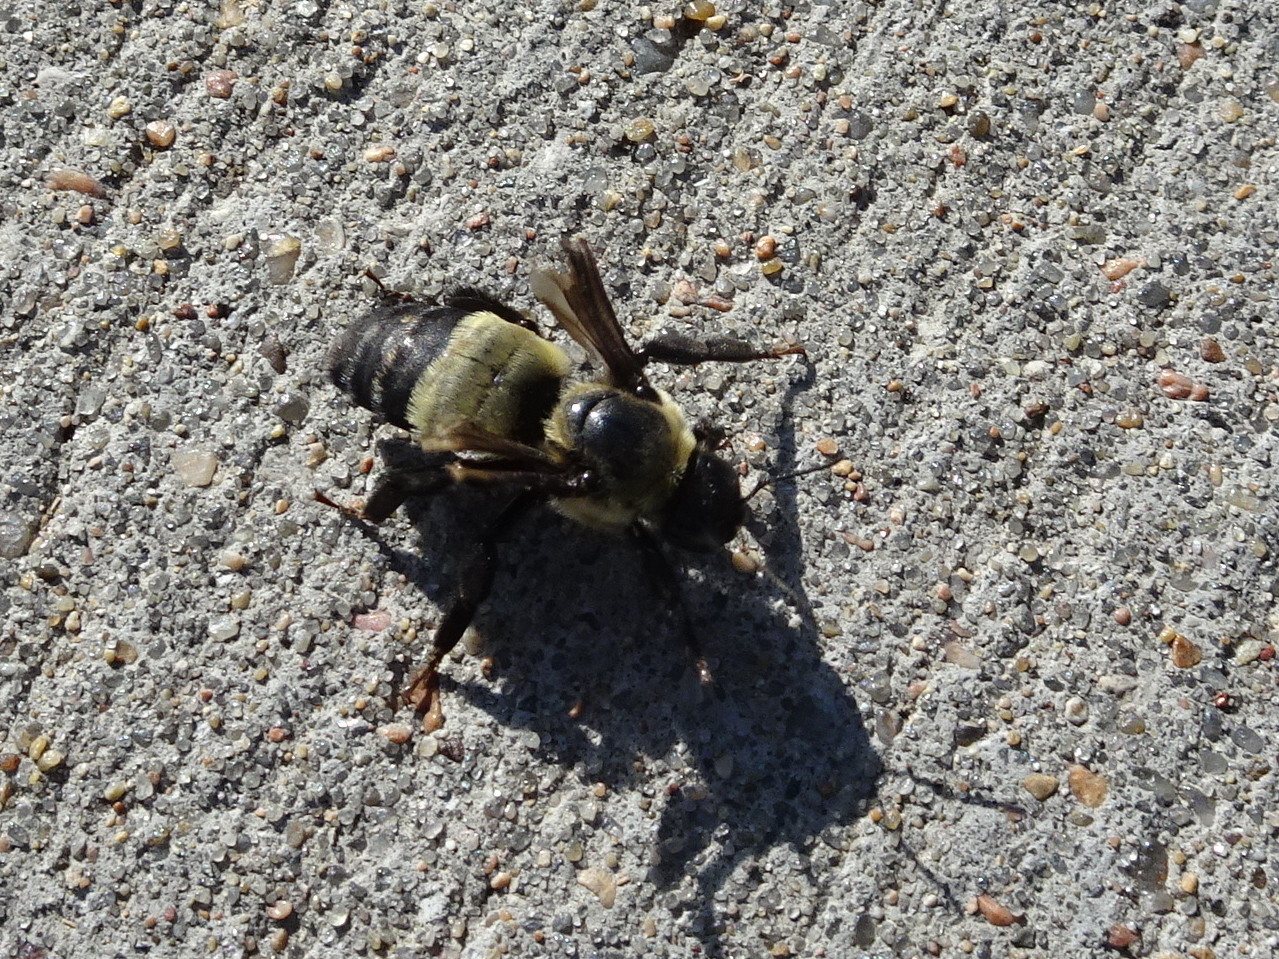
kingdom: Animalia
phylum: Arthropoda
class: Insecta
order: Hymenoptera
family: Apidae
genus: Bombus
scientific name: Bombus fraternus
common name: Southern plains bumble bee
